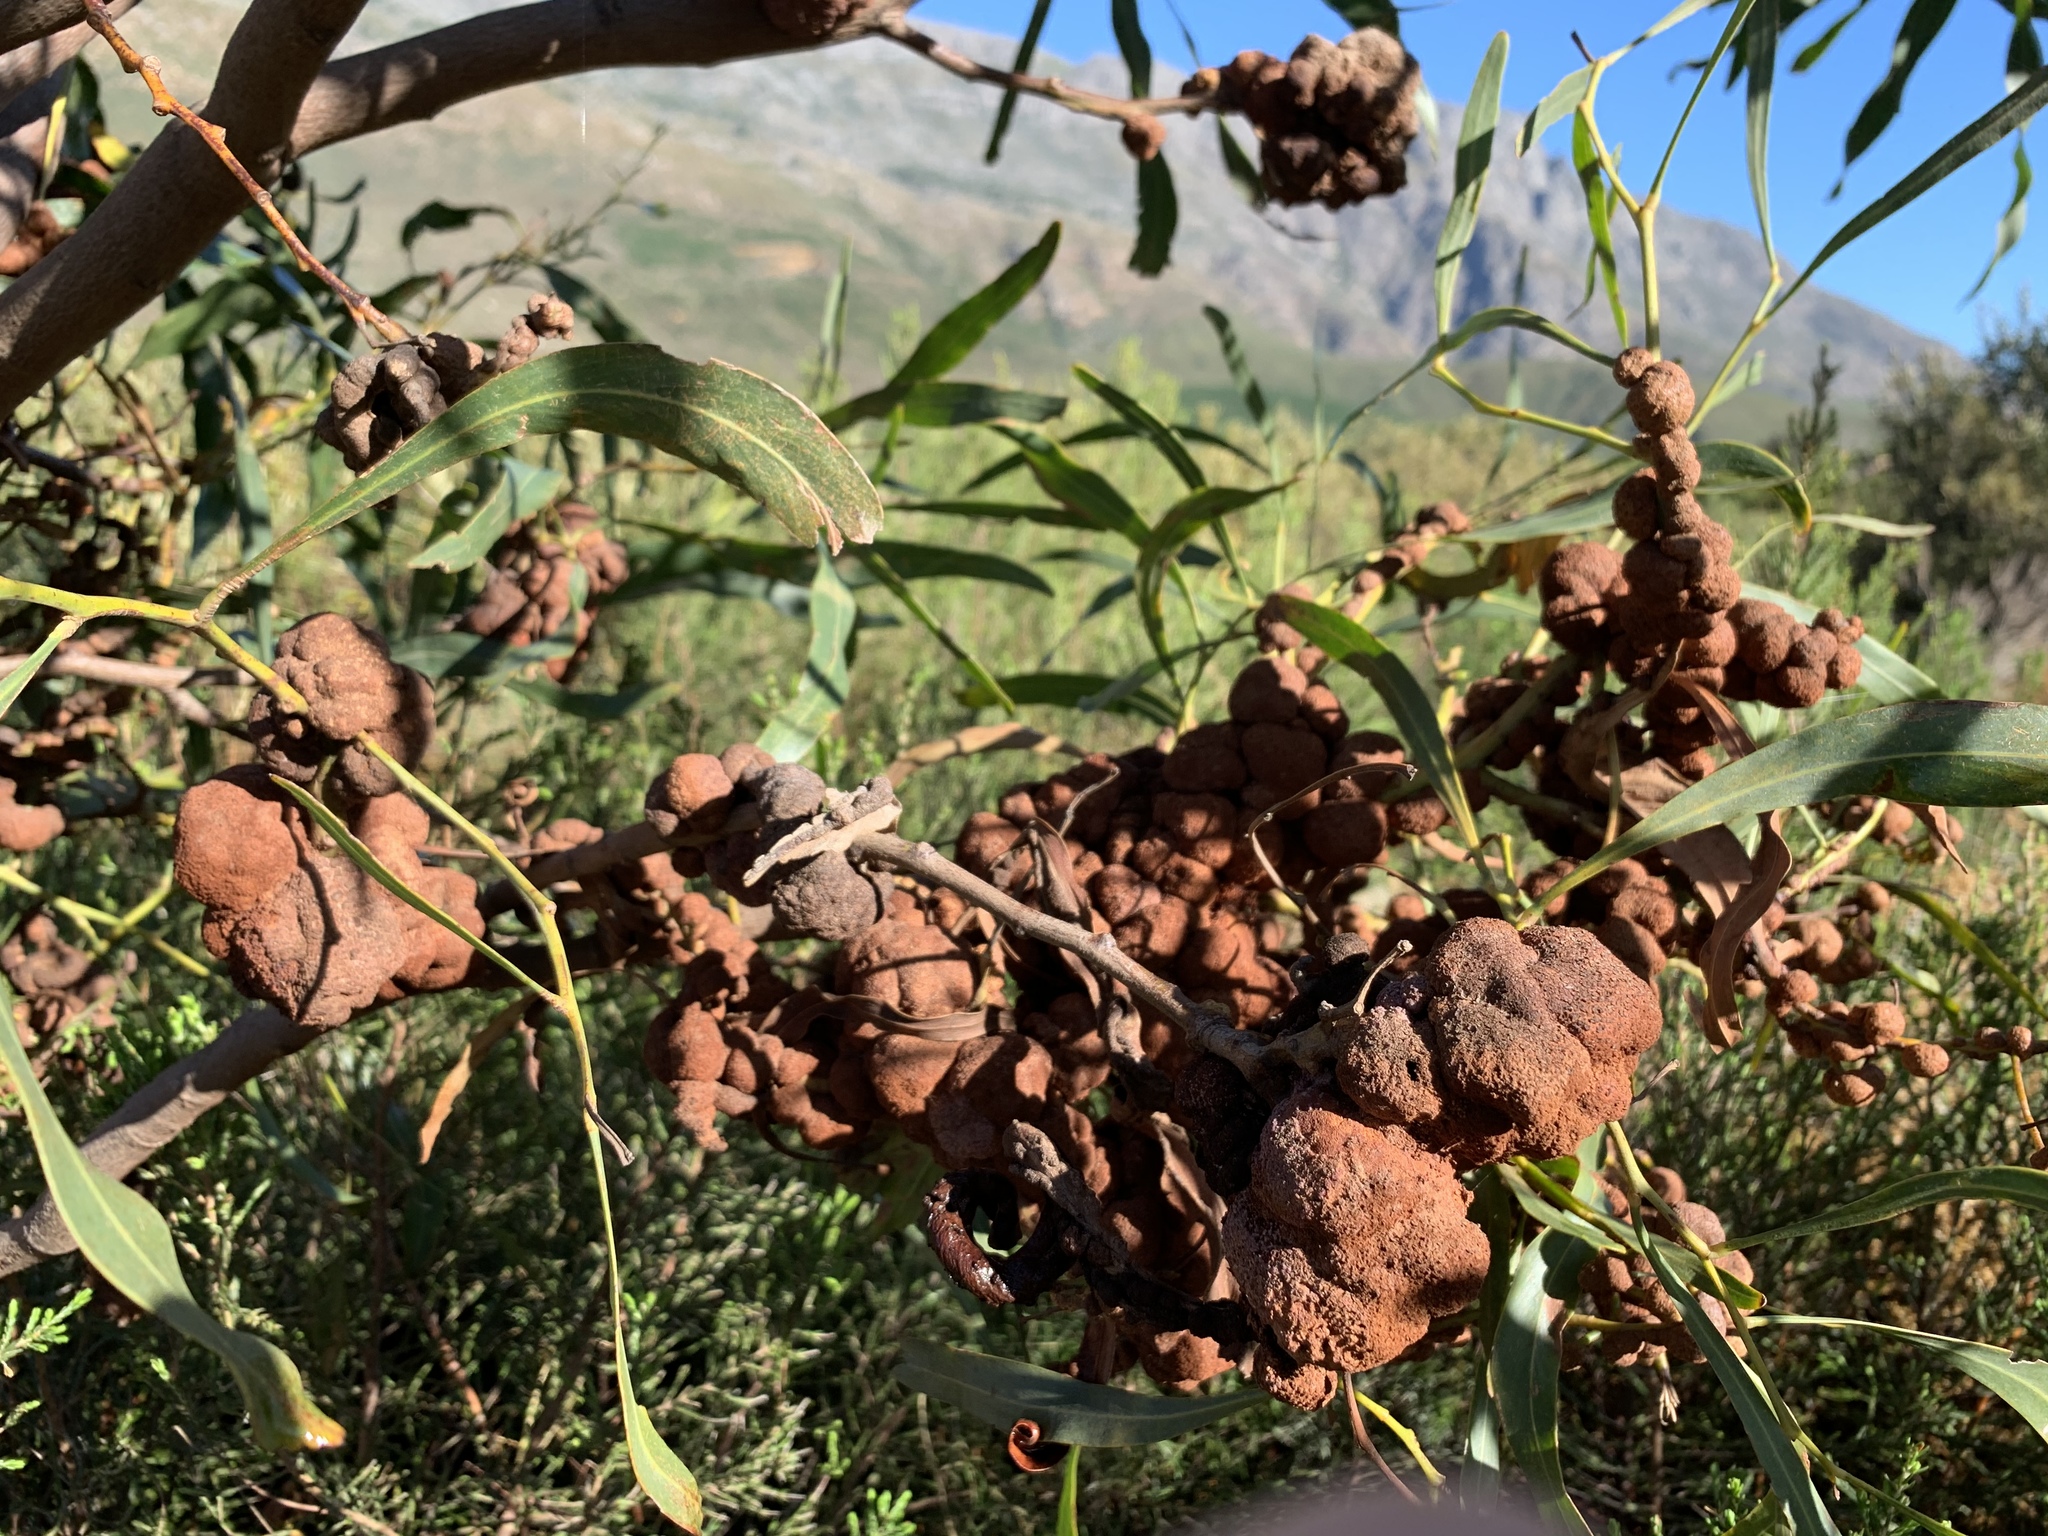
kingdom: Fungi
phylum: Basidiomycota
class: Pucciniomycetes
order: Pucciniales
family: Uromycladiaceae
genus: Uromycladium
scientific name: Uromycladium morrisii
